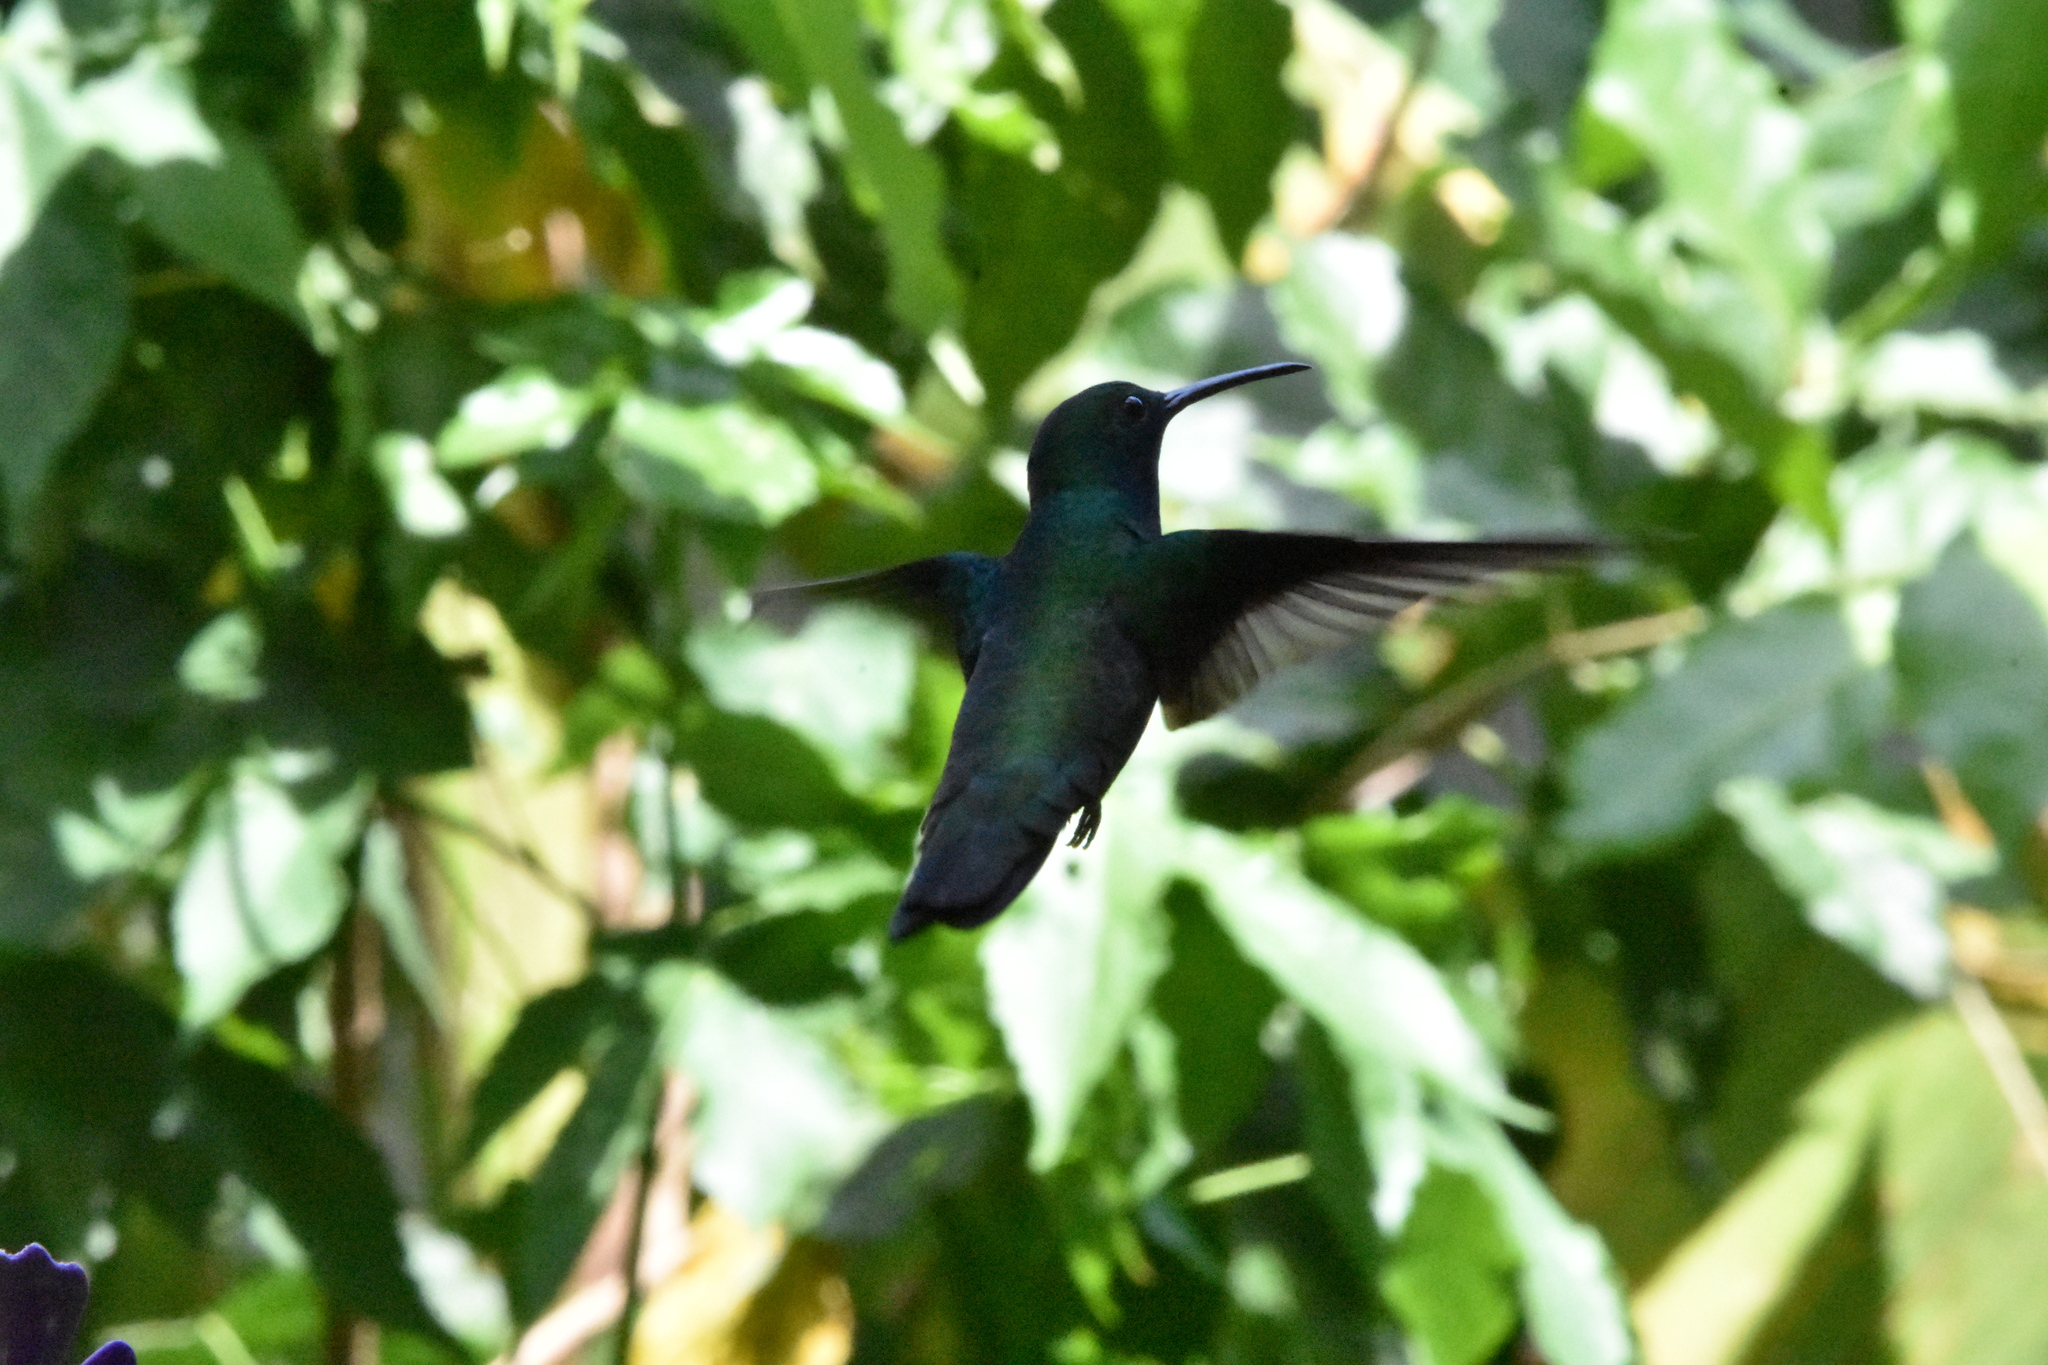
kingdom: Animalia
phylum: Chordata
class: Aves
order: Apodiformes
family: Trochilidae
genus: Anthracothorax
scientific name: Anthracothorax nigricollis
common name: Black-throated mango
